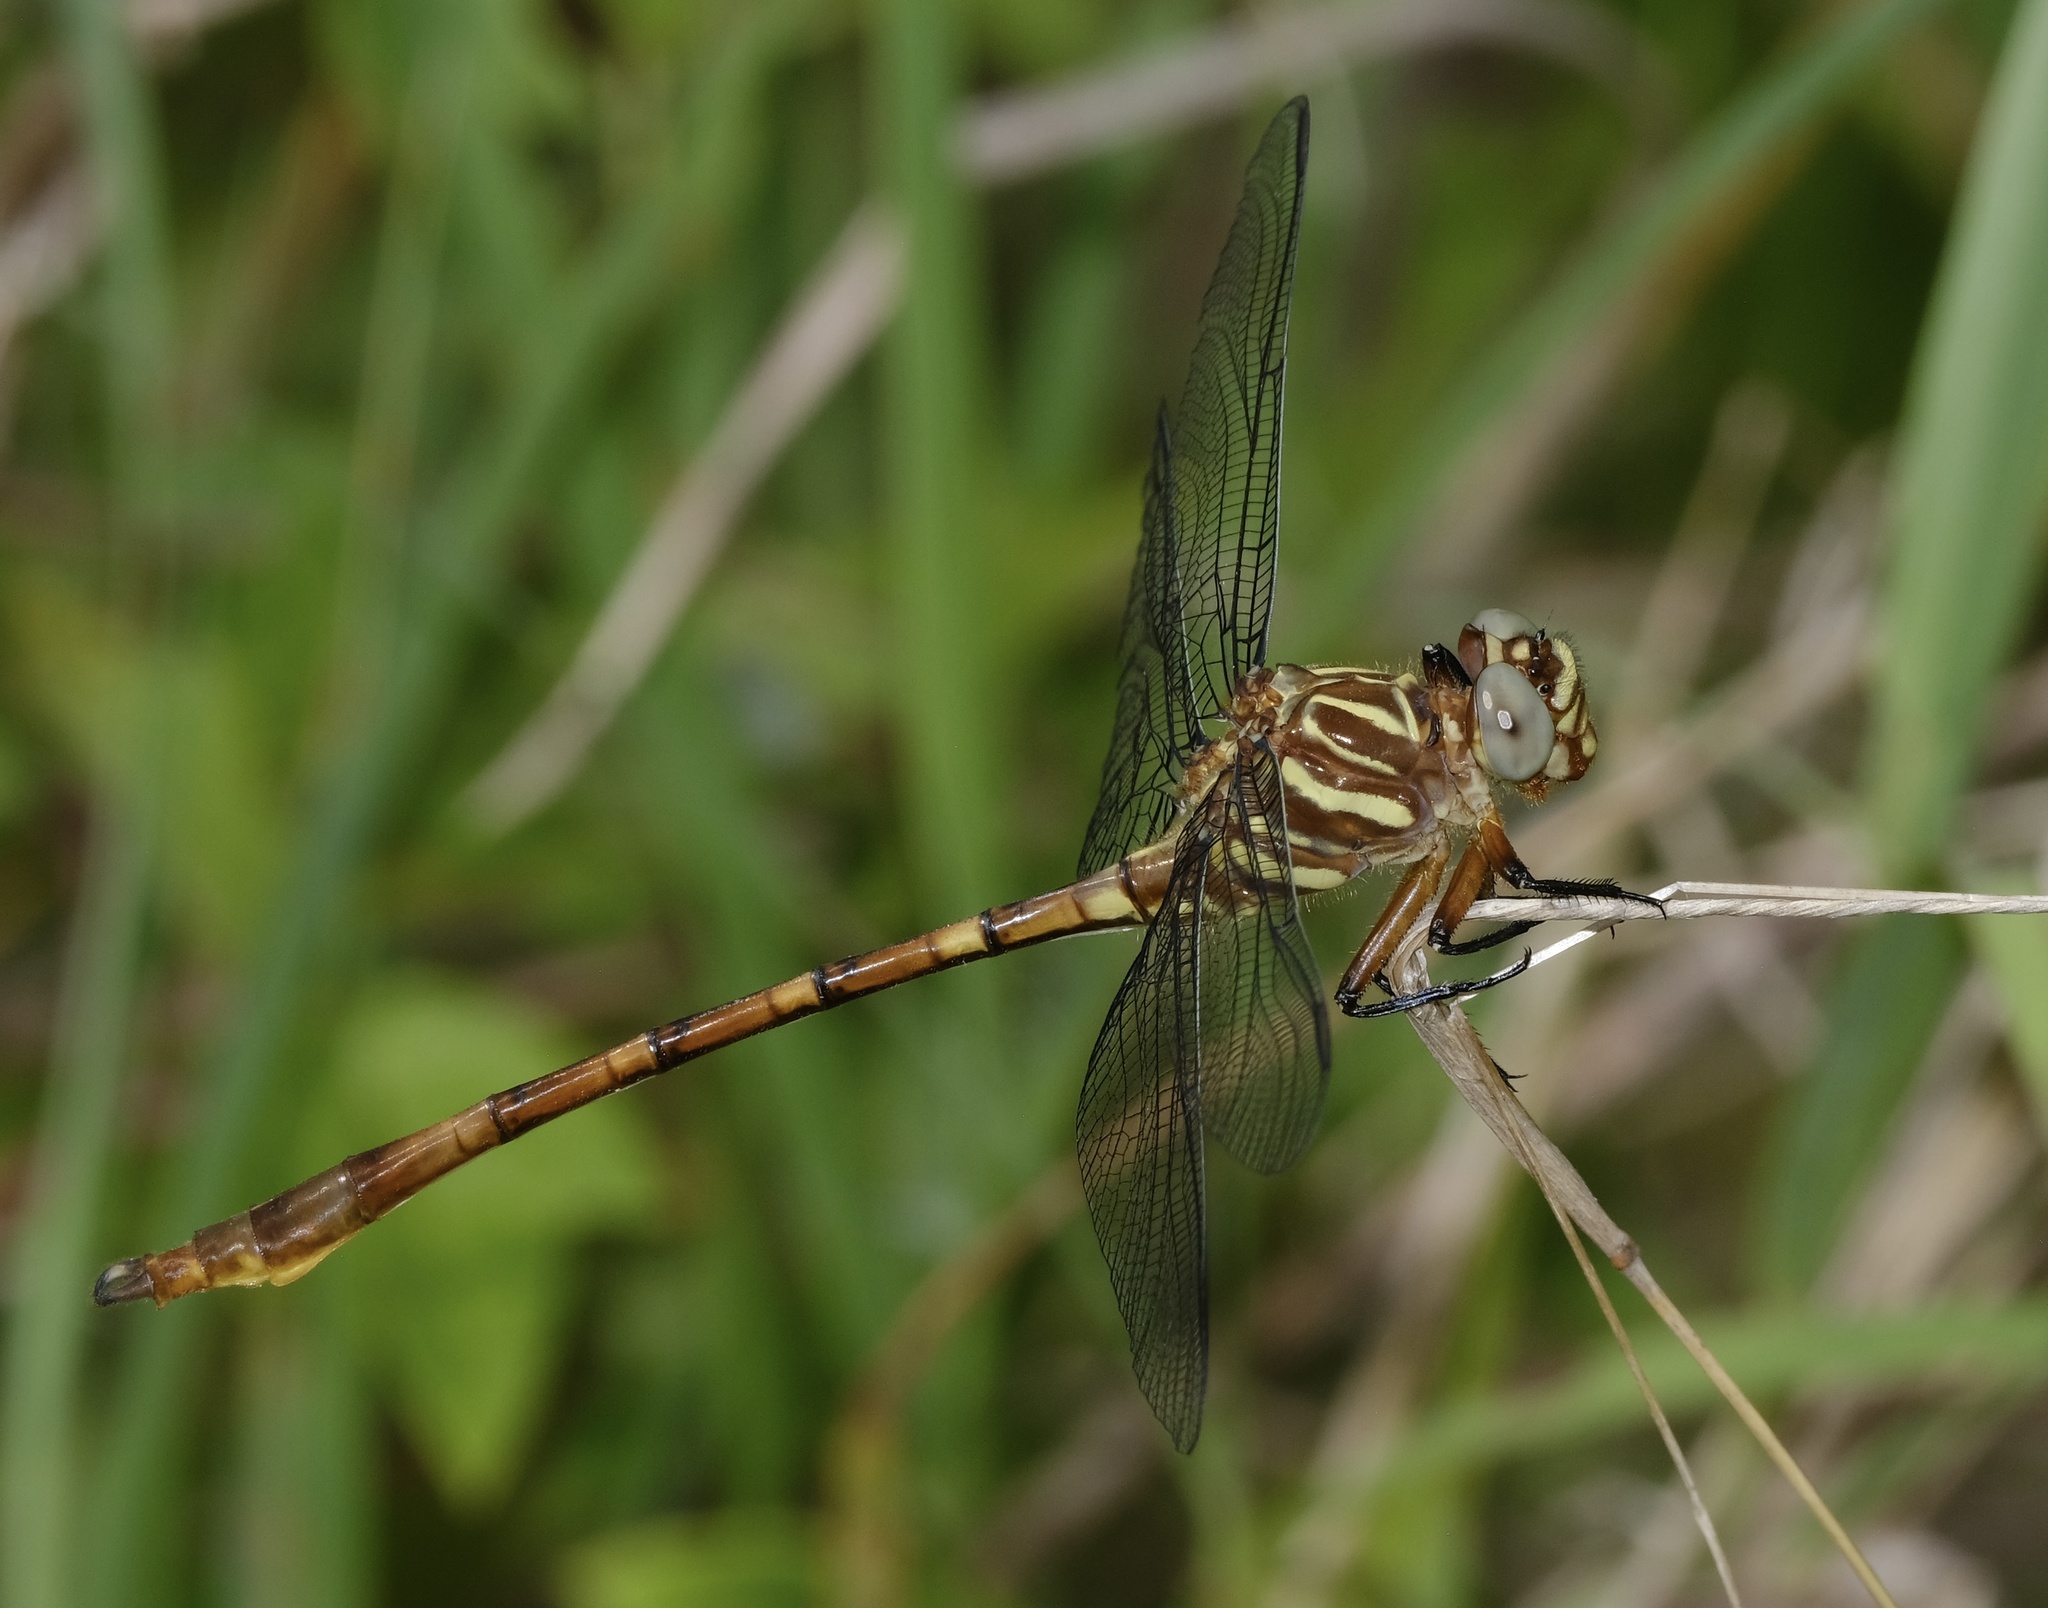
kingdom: Animalia
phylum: Arthropoda
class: Insecta
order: Odonata
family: Gomphidae
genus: Aphylla
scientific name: Aphylla angustifolia
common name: Broad-striped forceptail
